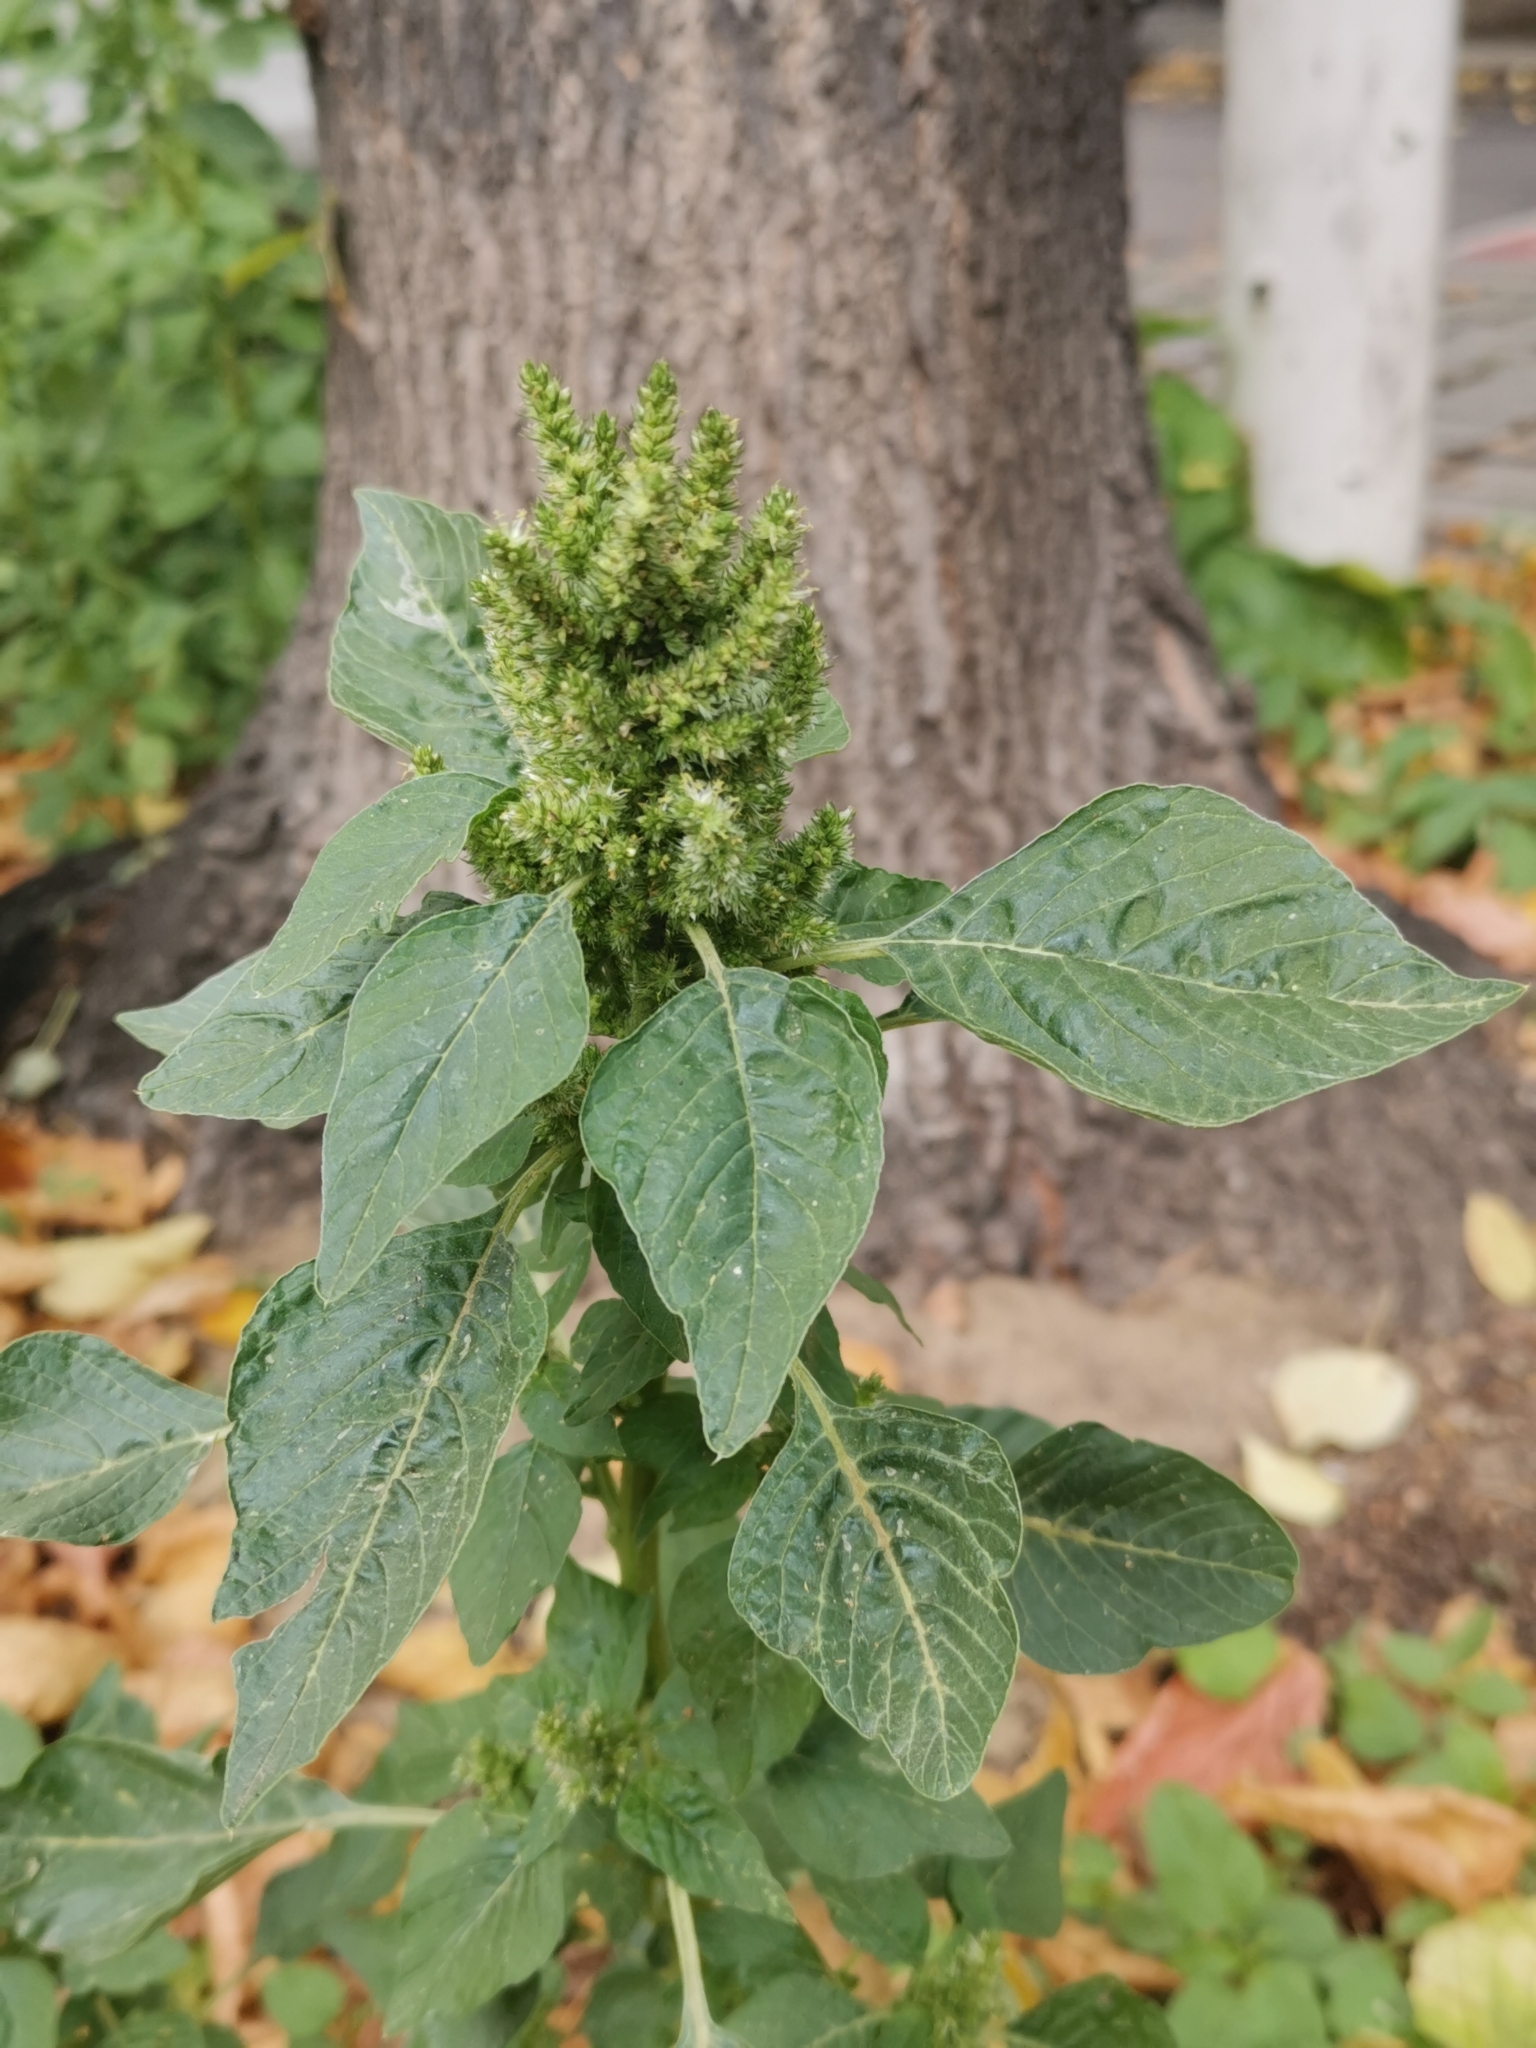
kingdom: Plantae
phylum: Tracheophyta
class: Magnoliopsida
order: Caryophyllales
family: Amaranthaceae
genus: Amaranthus
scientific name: Amaranthus retroflexus
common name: Redroot amaranth
